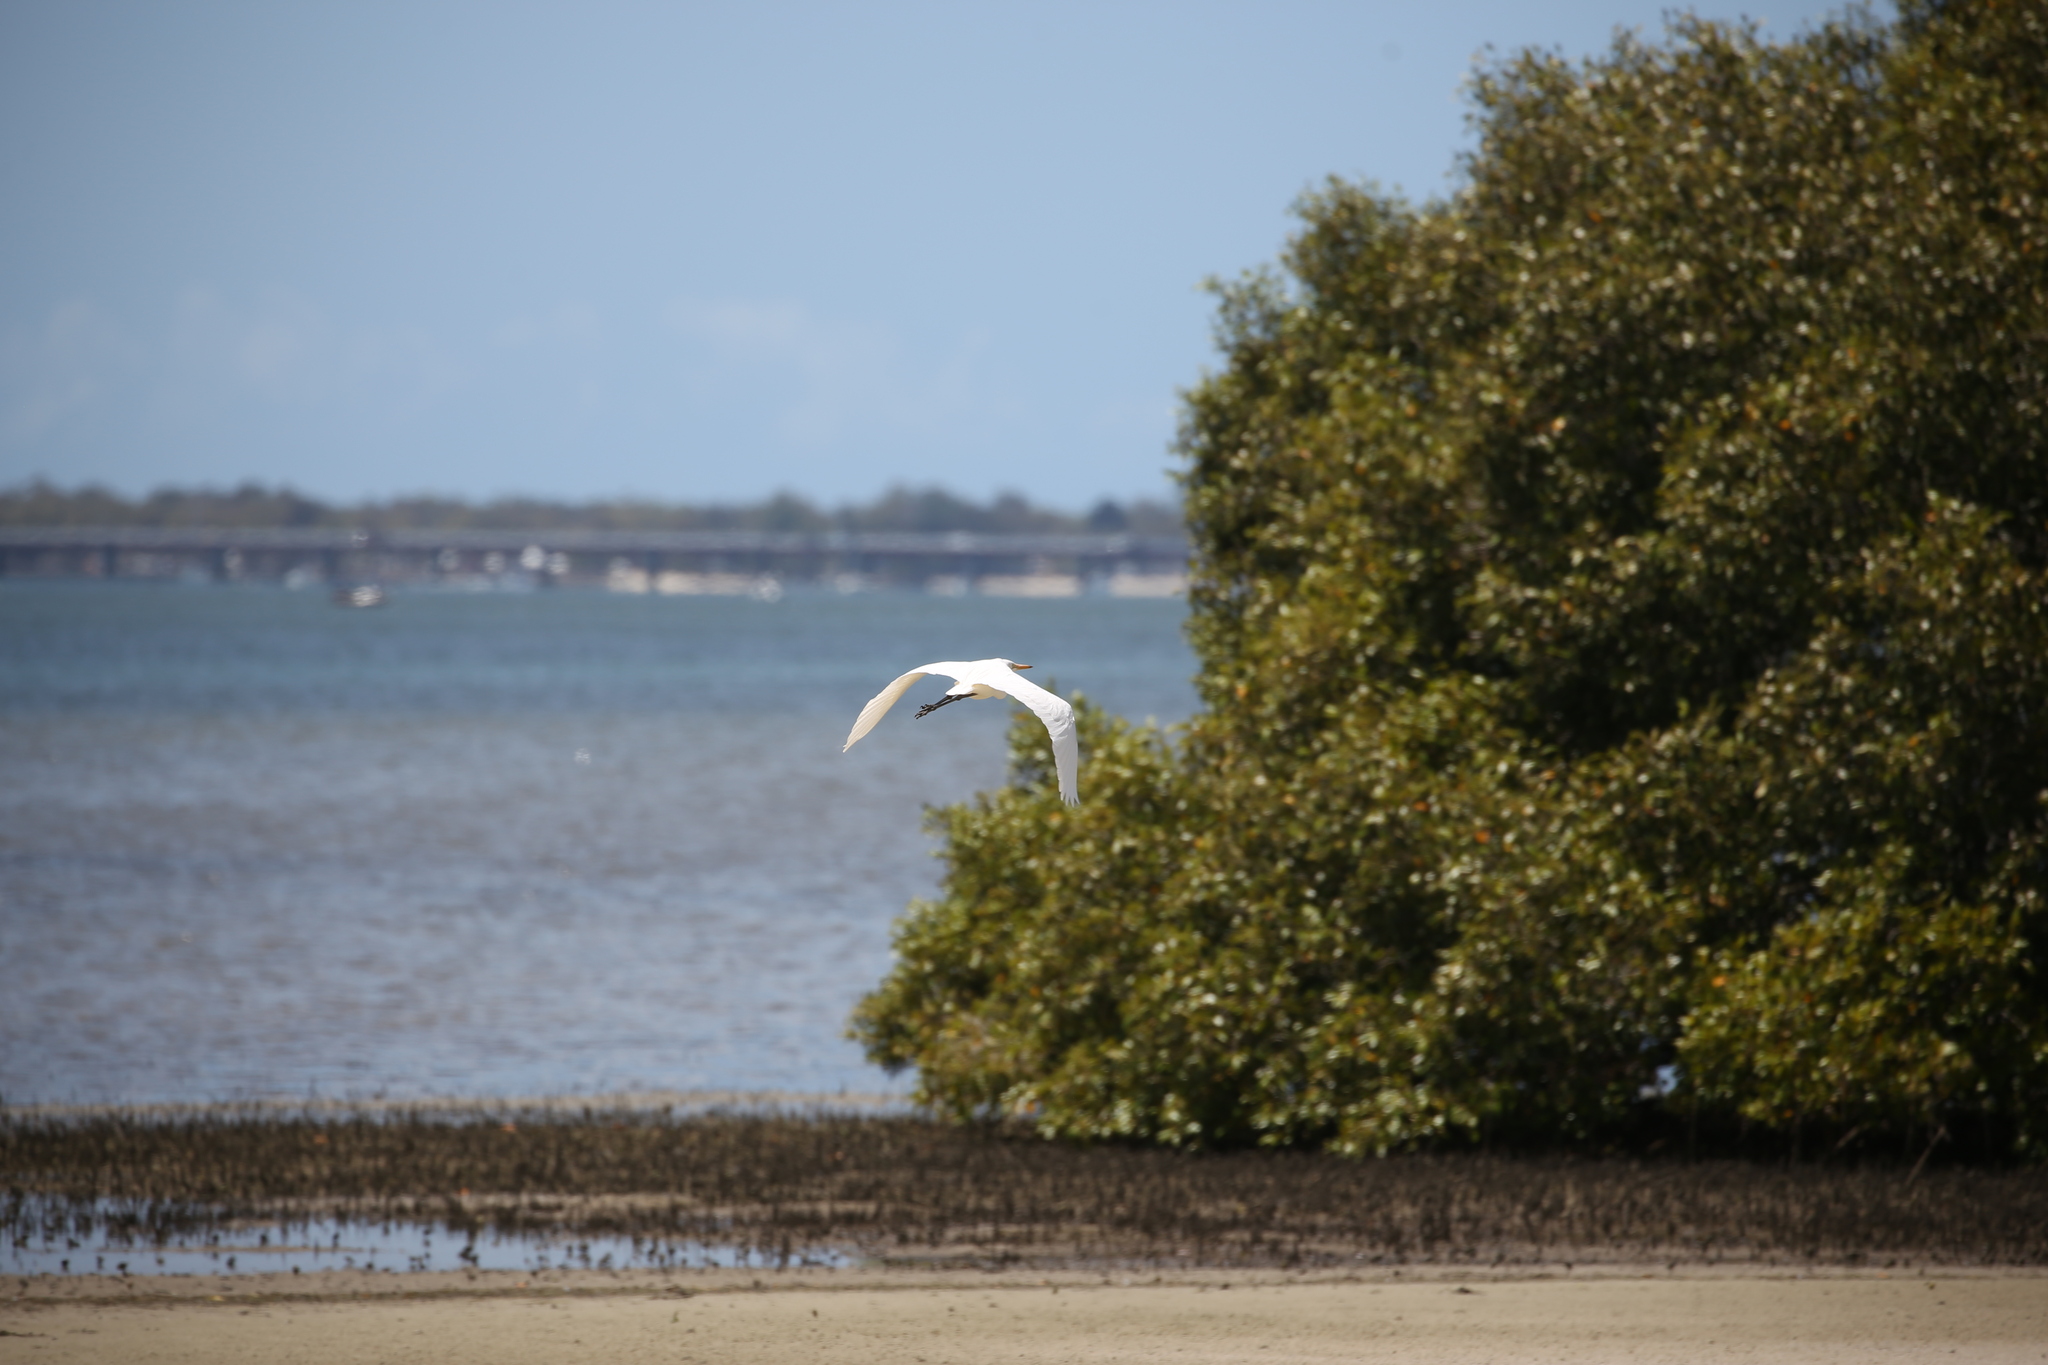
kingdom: Animalia
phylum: Chordata
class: Aves
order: Pelecaniformes
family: Ardeidae
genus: Ardea
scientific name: Ardea alba
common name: Great egret
